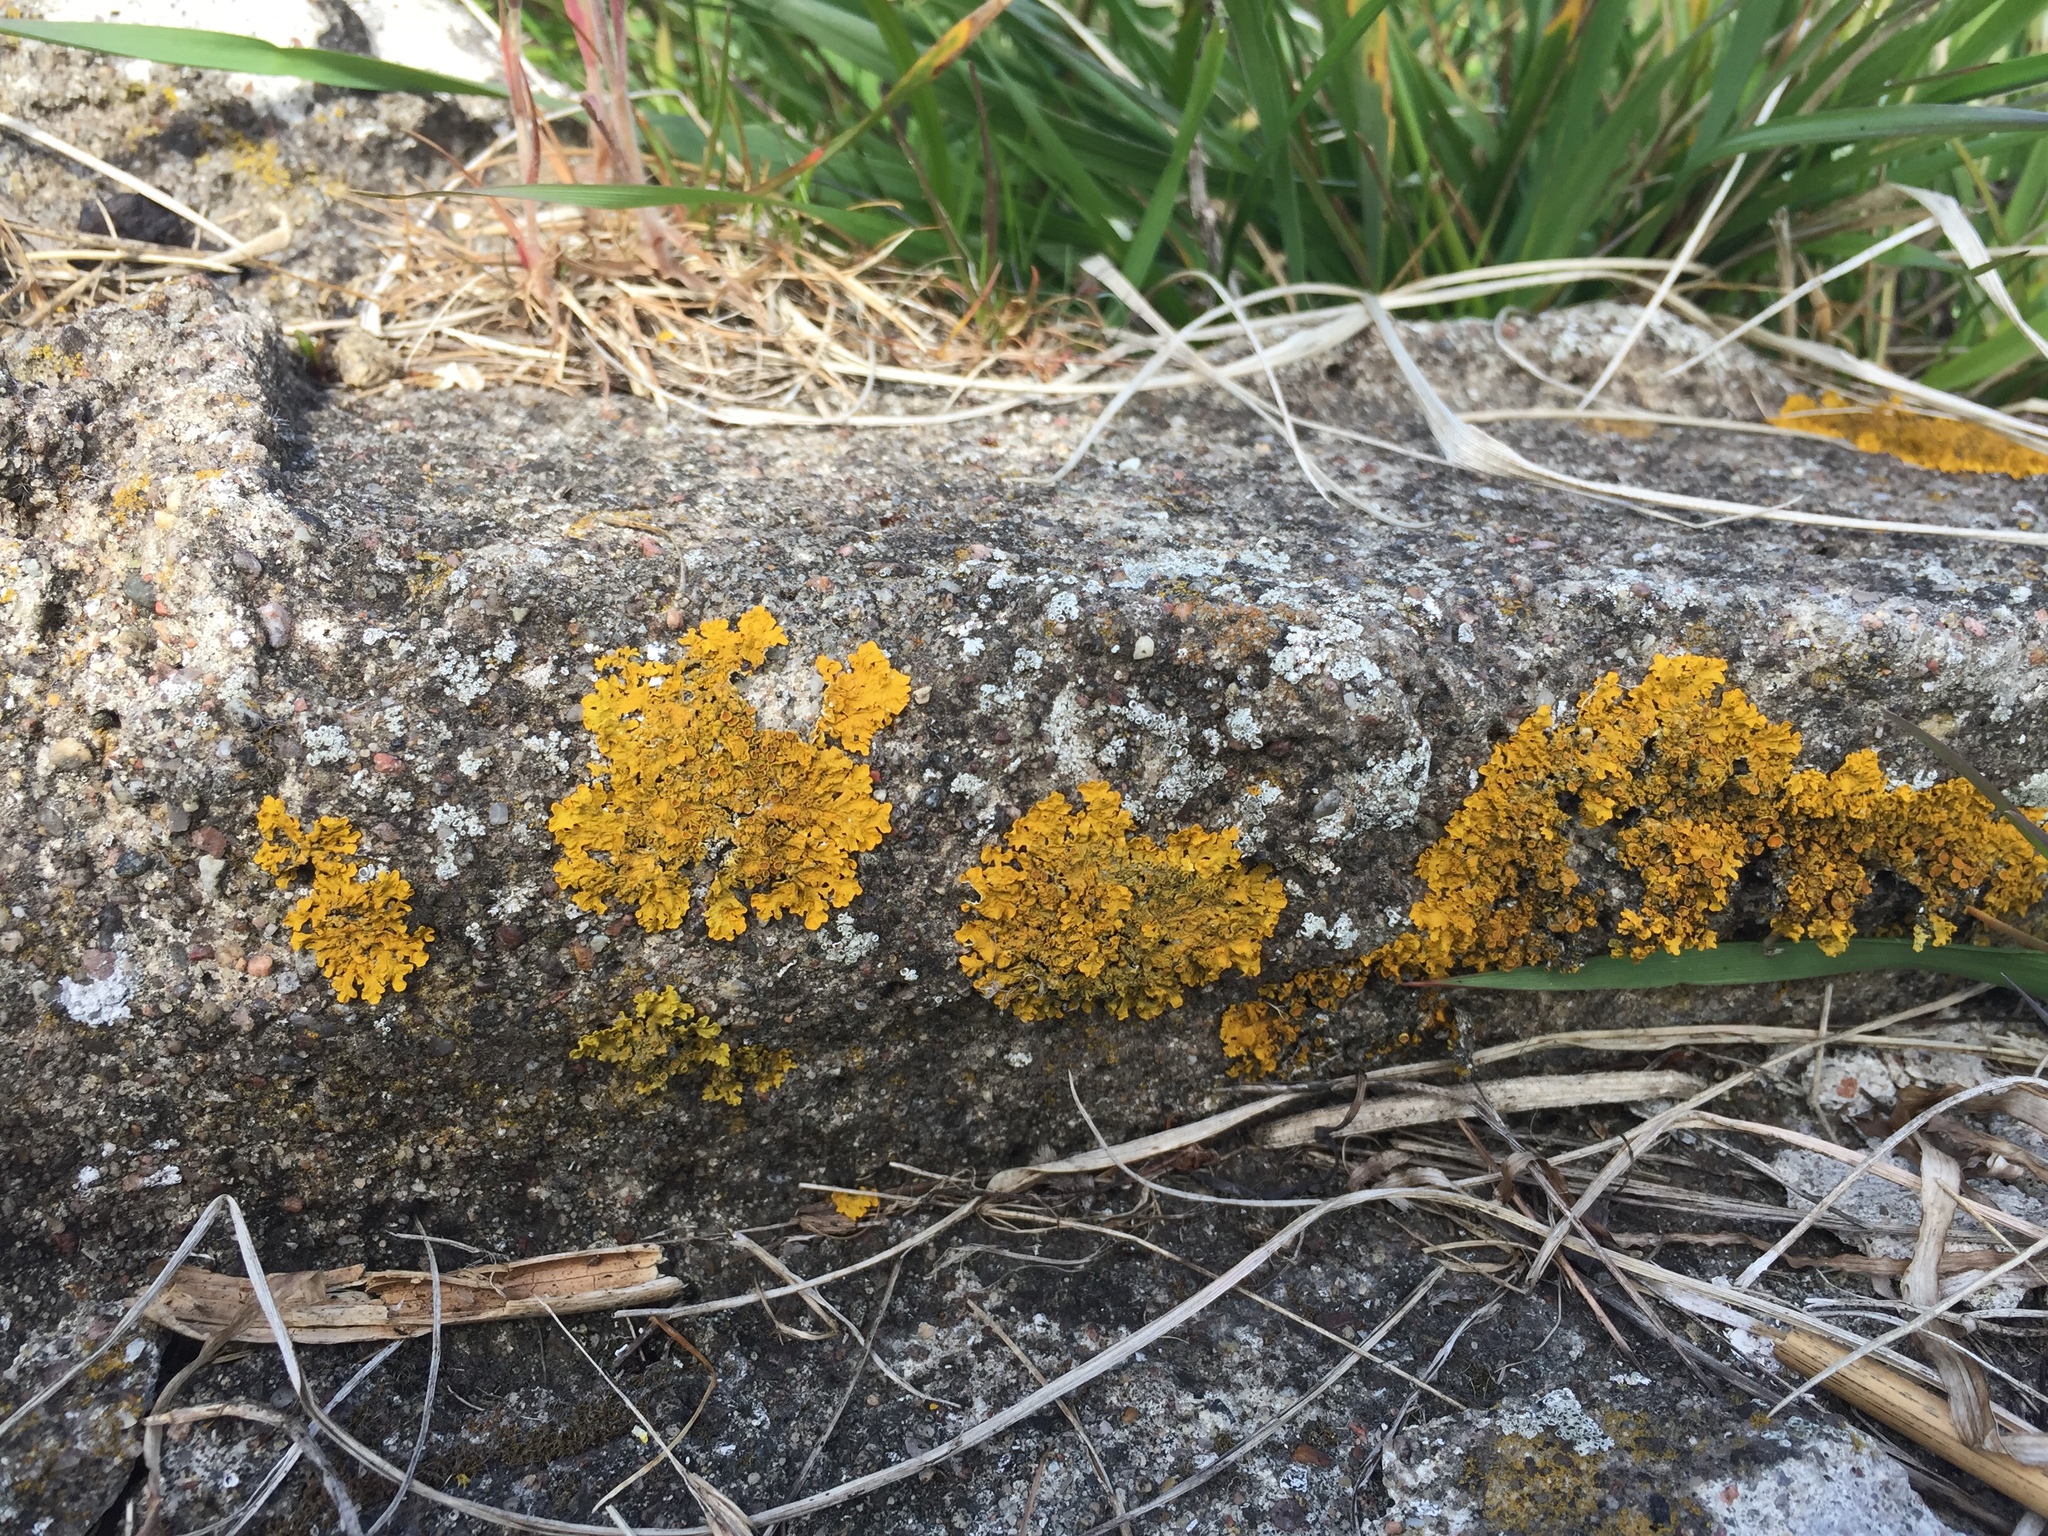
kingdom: Fungi
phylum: Ascomycota
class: Lecanoromycetes
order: Teloschistales
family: Teloschistaceae
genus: Xanthoria
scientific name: Xanthoria parietina
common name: Common orange lichen
